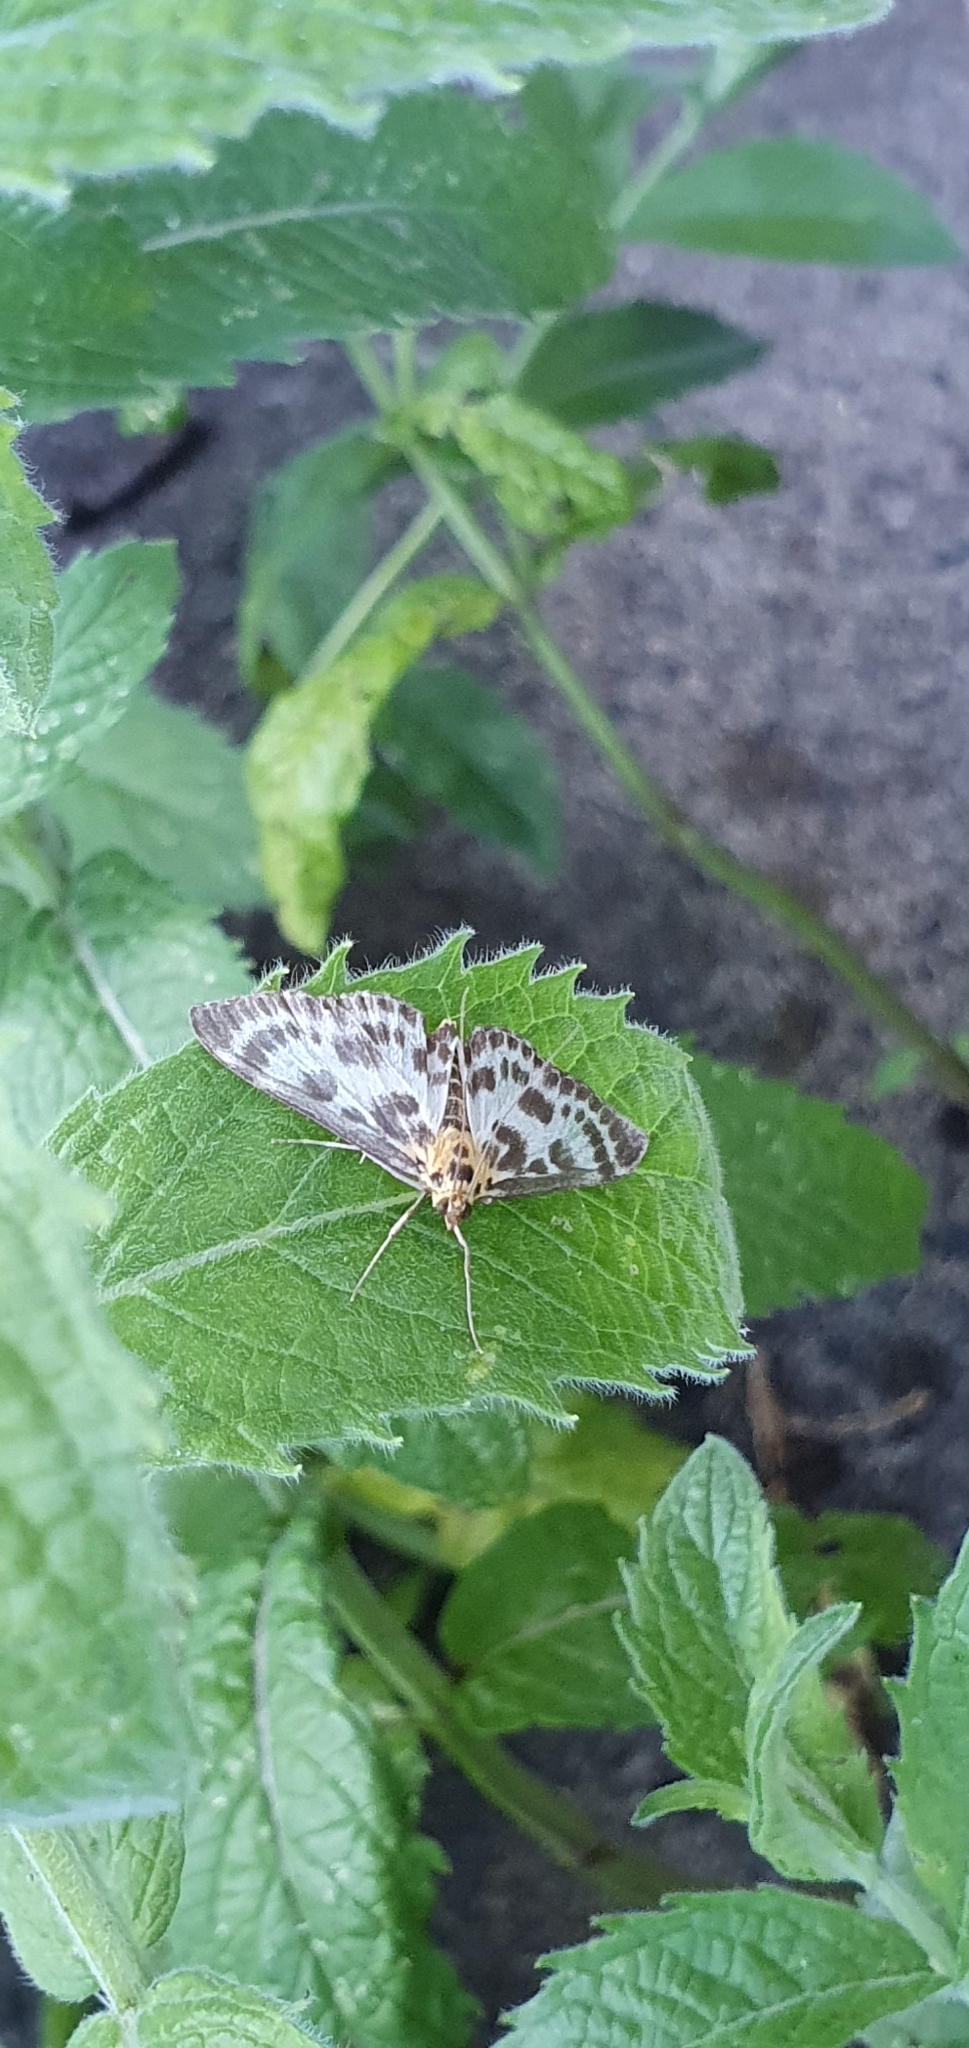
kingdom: Animalia
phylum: Arthropoda
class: Insecta
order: Lepidoptera
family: Crambidae
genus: Anania
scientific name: Anania hortulata
